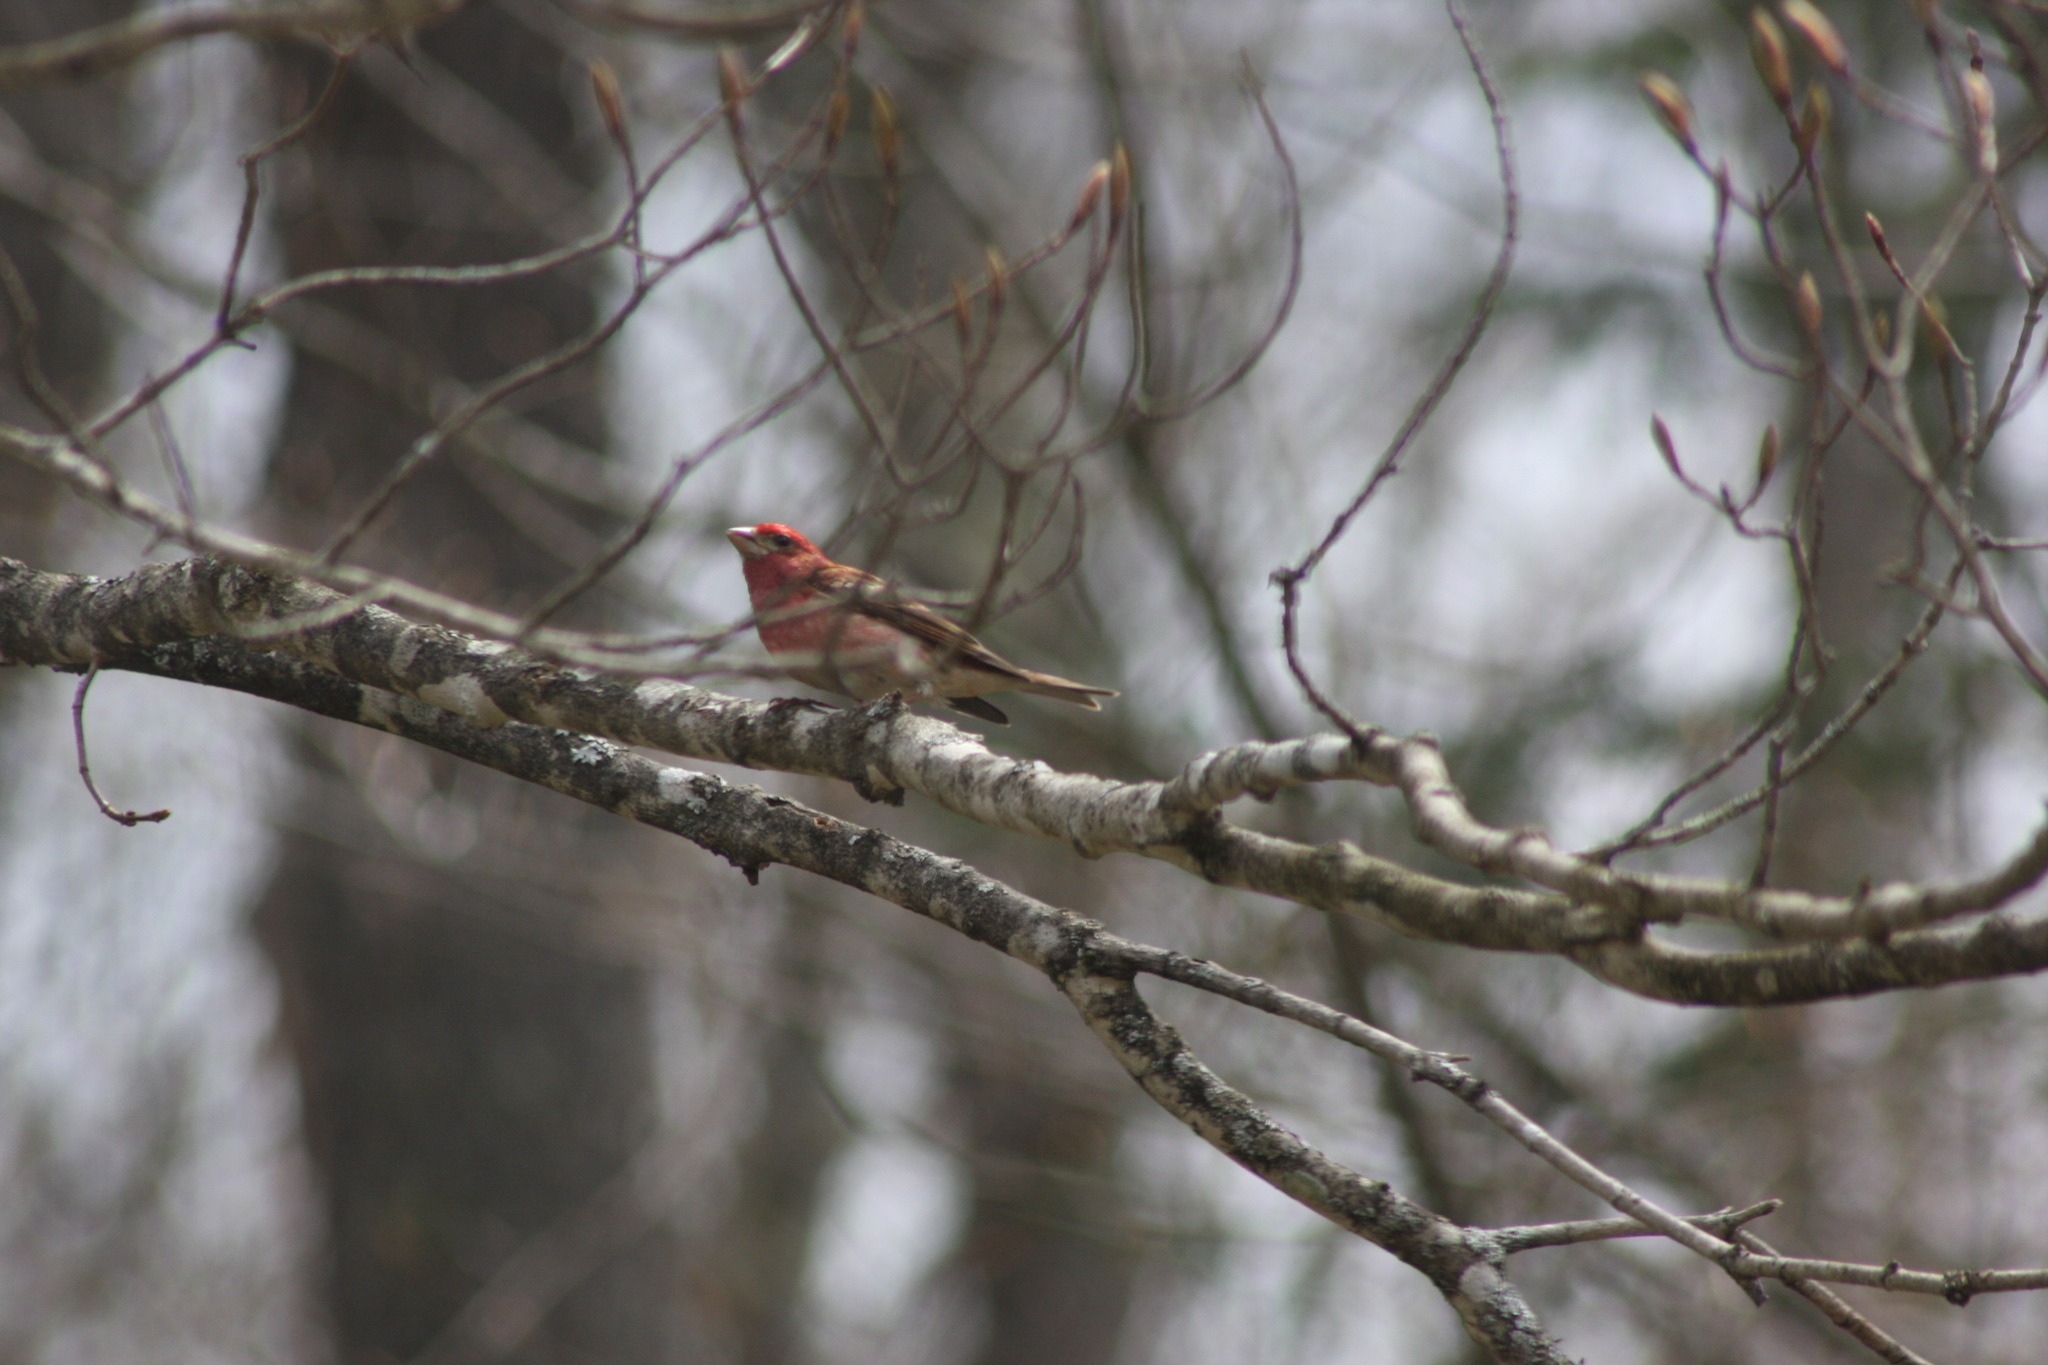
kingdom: Animalia
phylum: Chordata
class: Aves
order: Passeriformes
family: Fringillidae
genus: Haemorhous
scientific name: Haemorhous purpureus
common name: Purple finch
